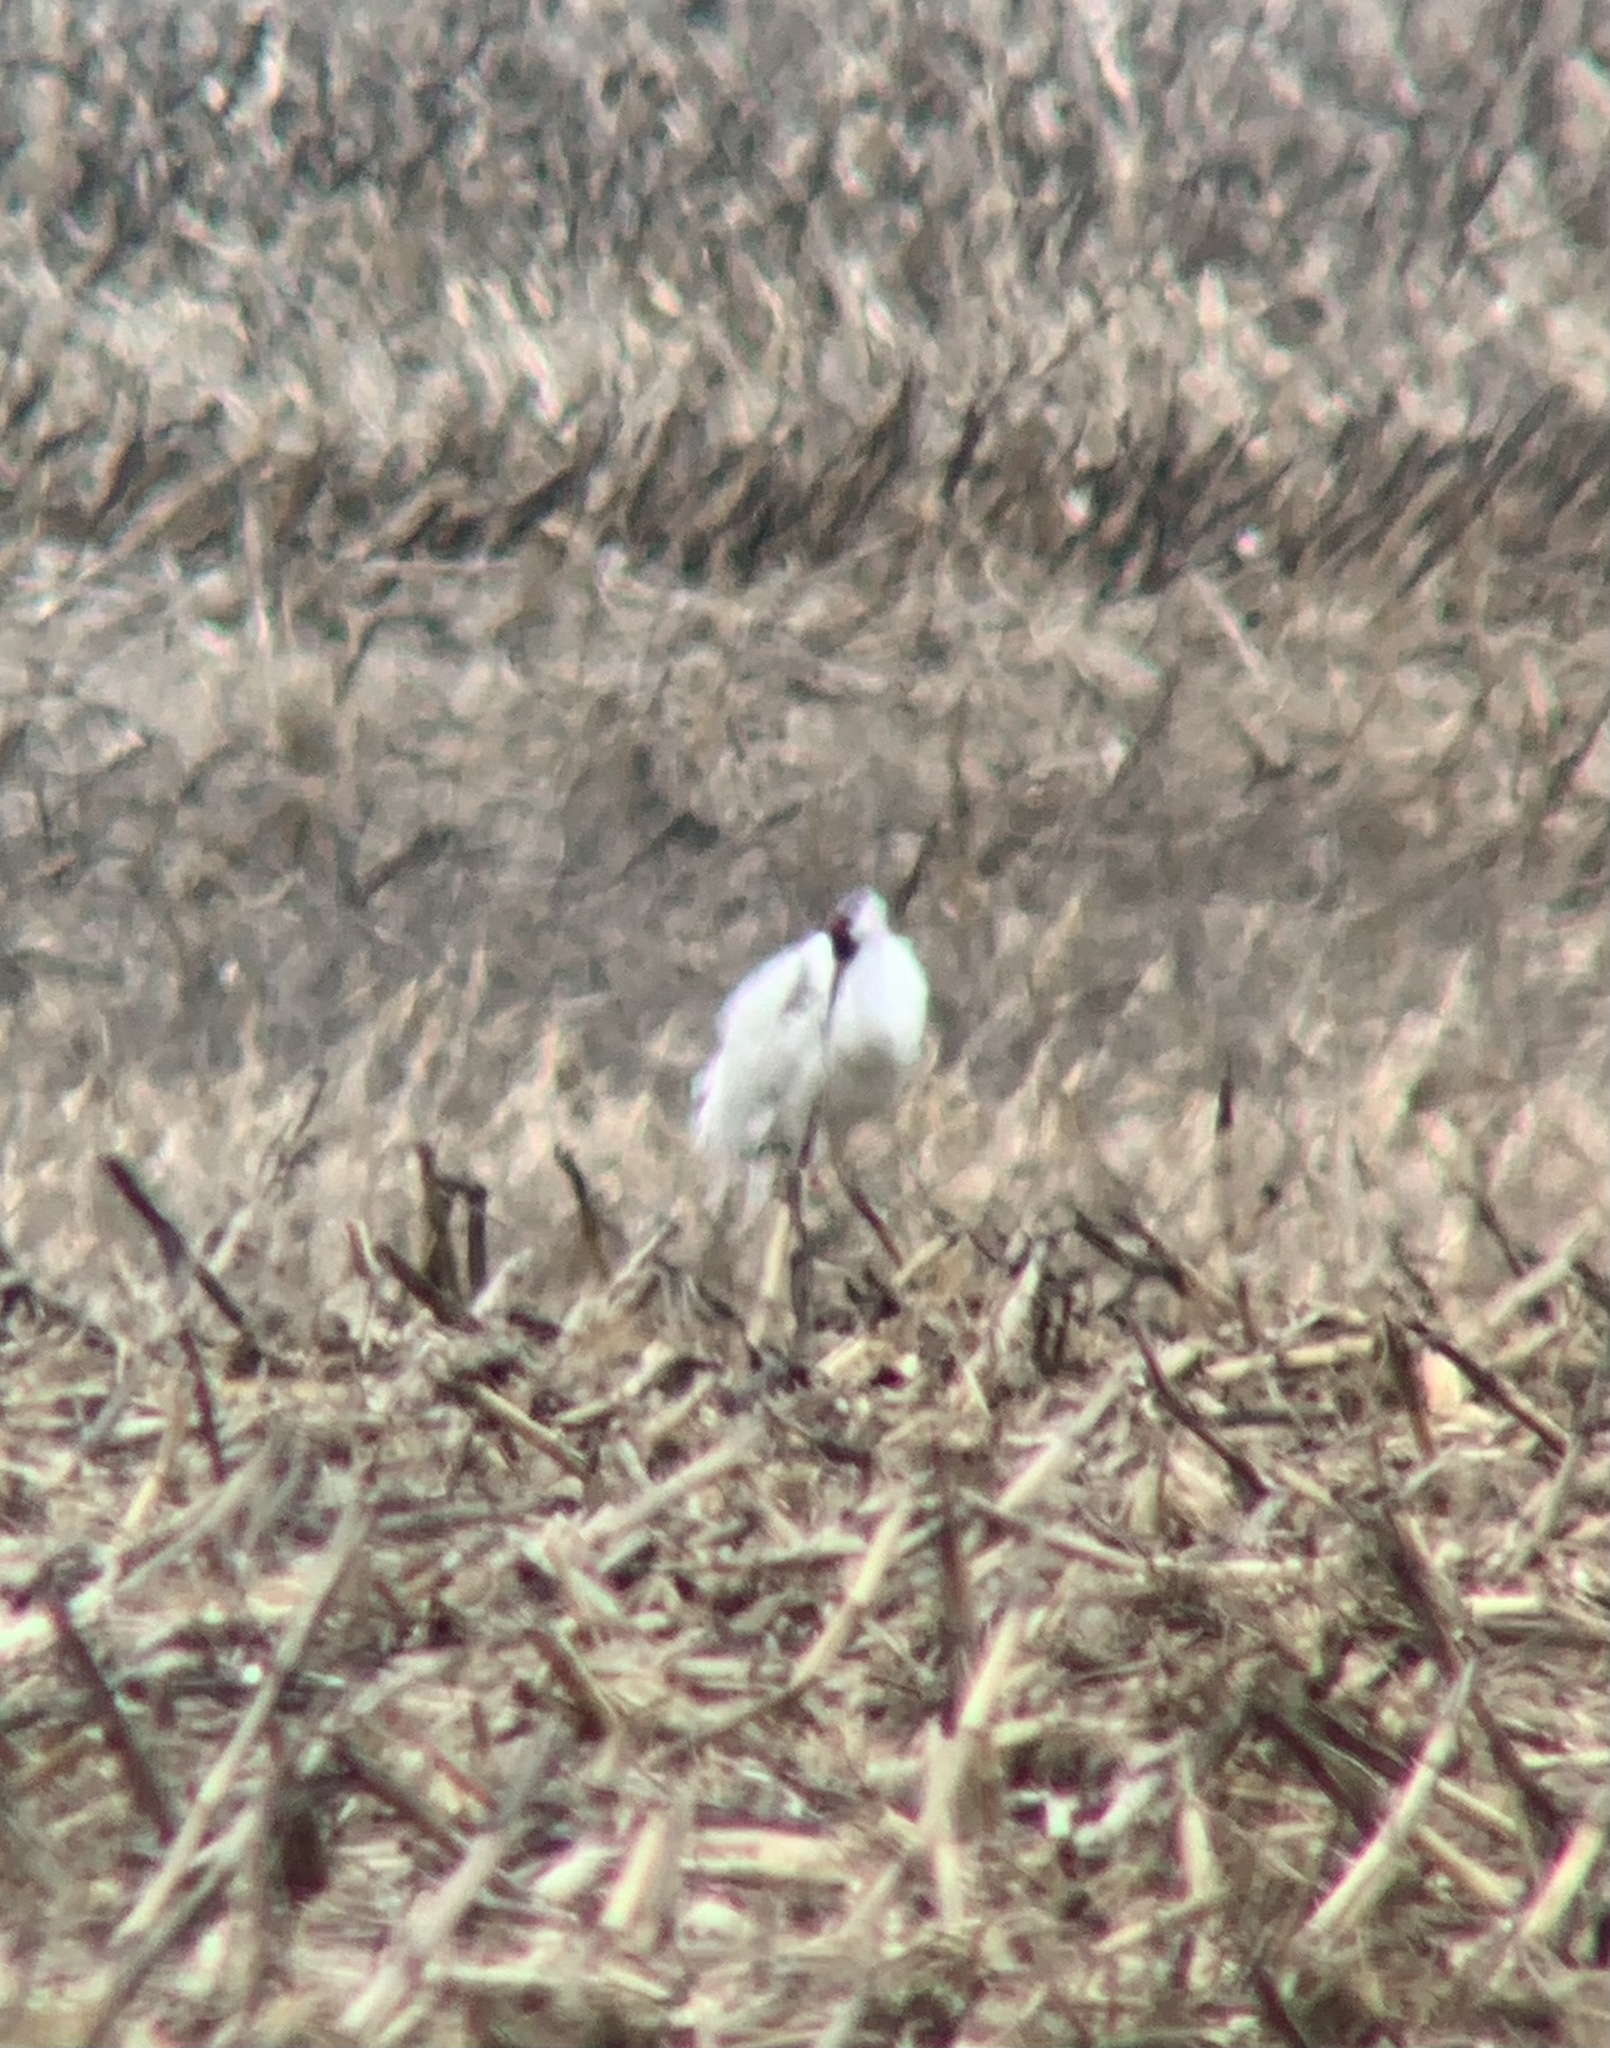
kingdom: Animalia
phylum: Chordata
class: Aves
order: Gruiformes
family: Gruidae
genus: Grus
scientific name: Grus americana
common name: Whooping crane
